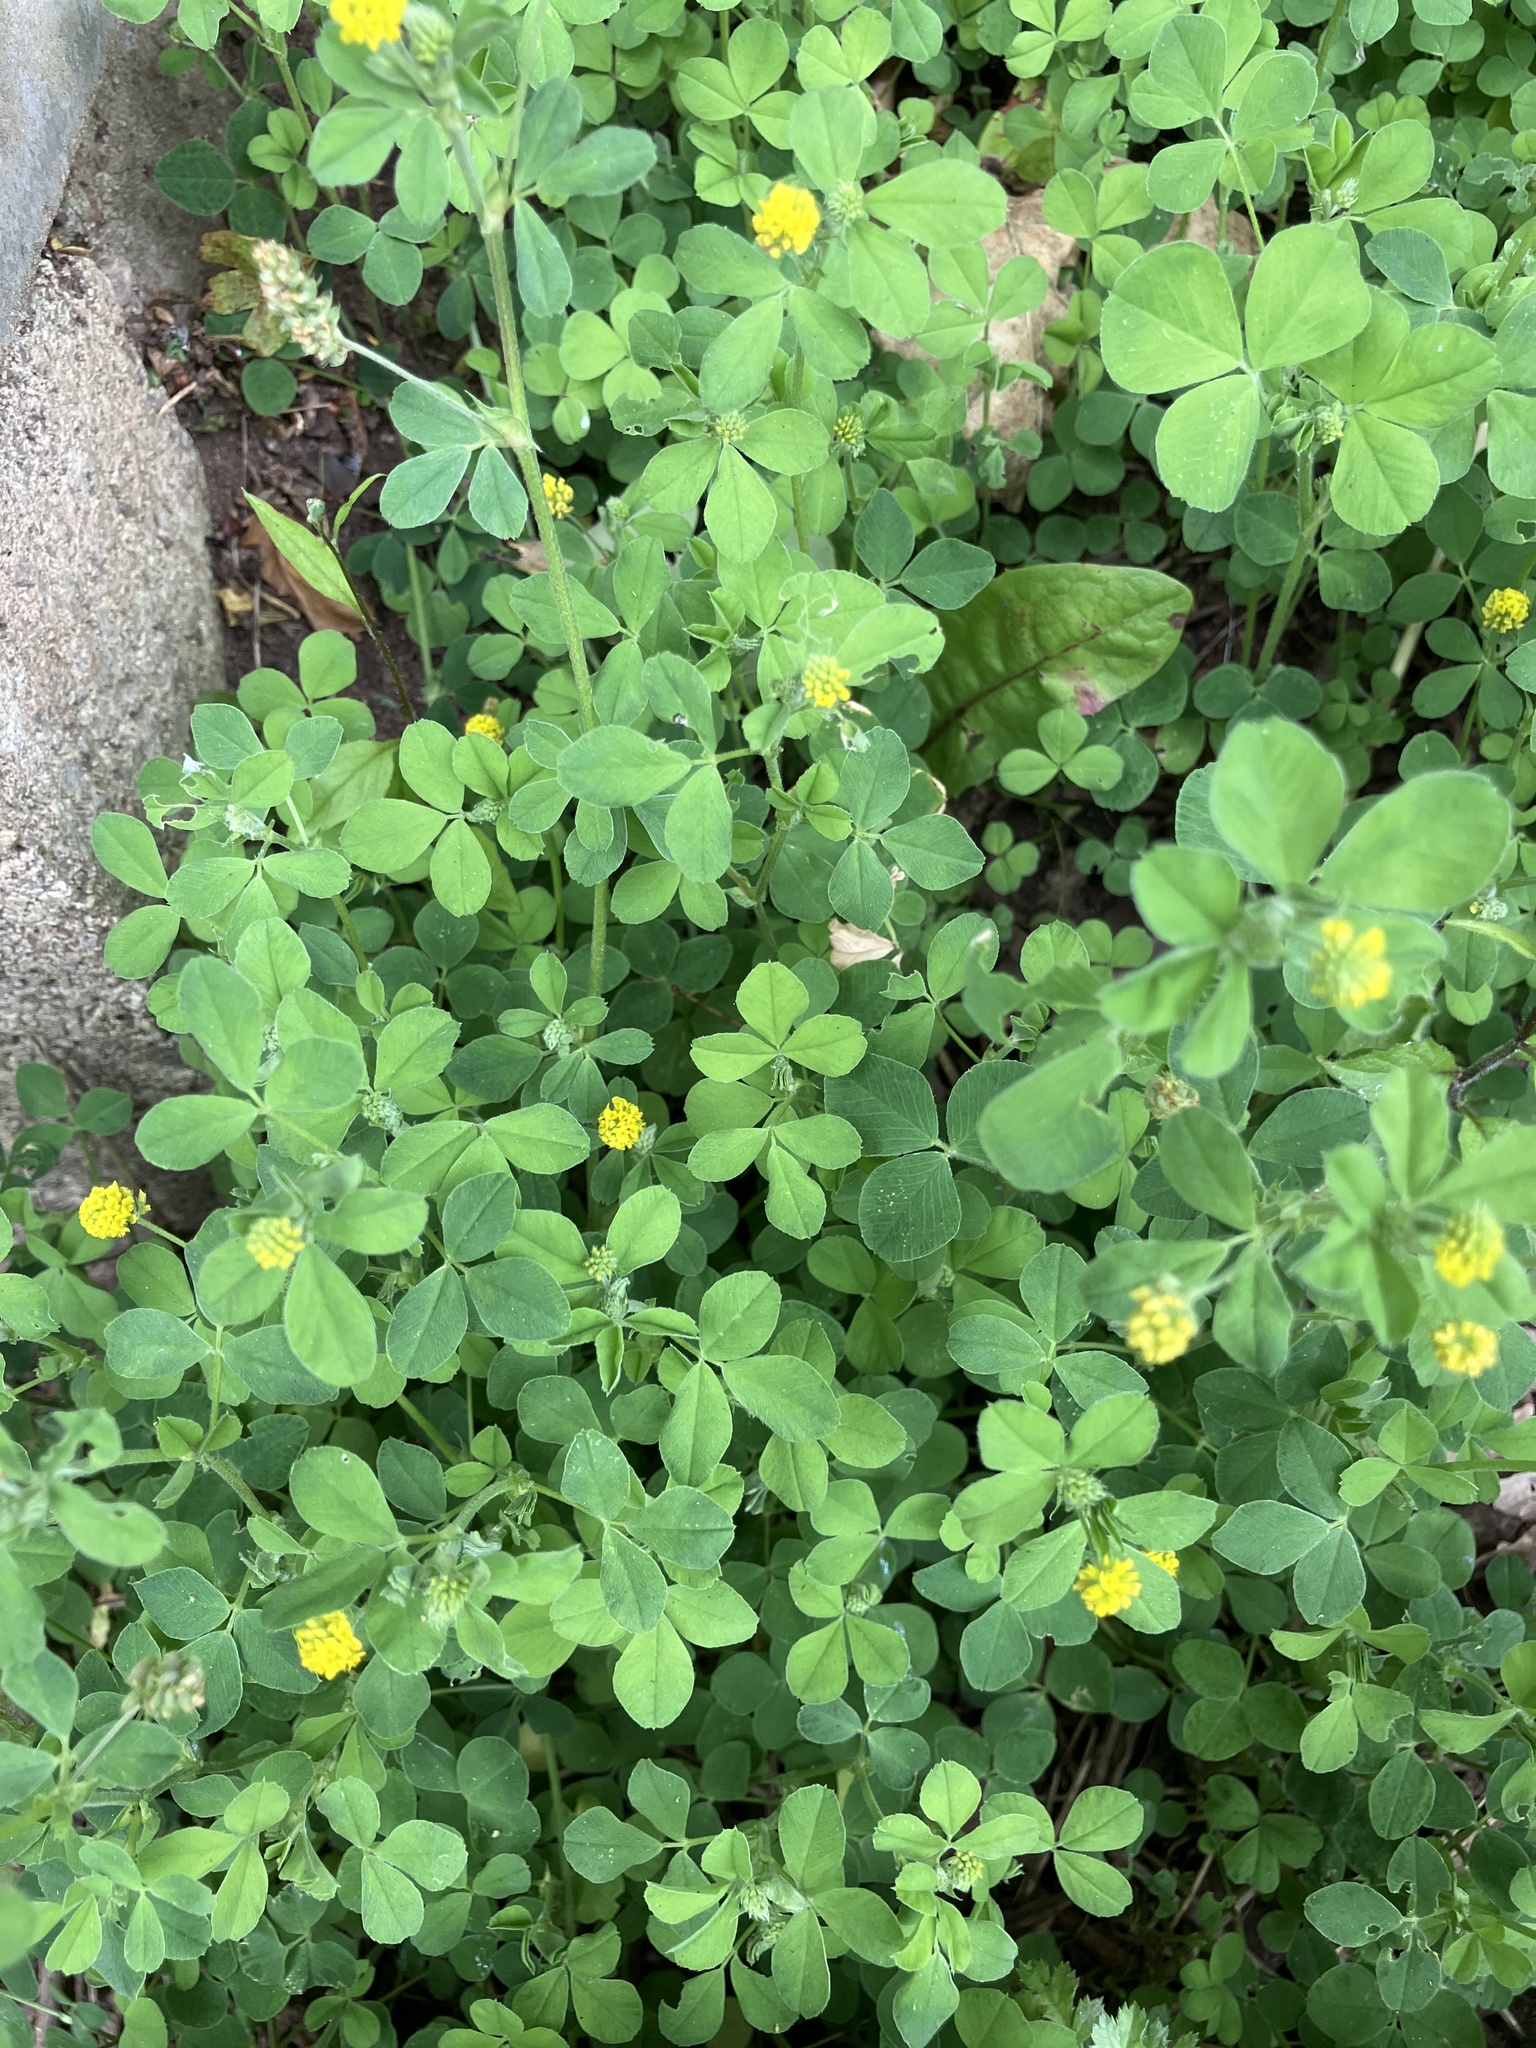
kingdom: Plantae
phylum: Tracheophyta
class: Magnoliopsida
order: Fabales
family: Fabaceae
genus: Medicago
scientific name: Medicago lupulina
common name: Black medick
